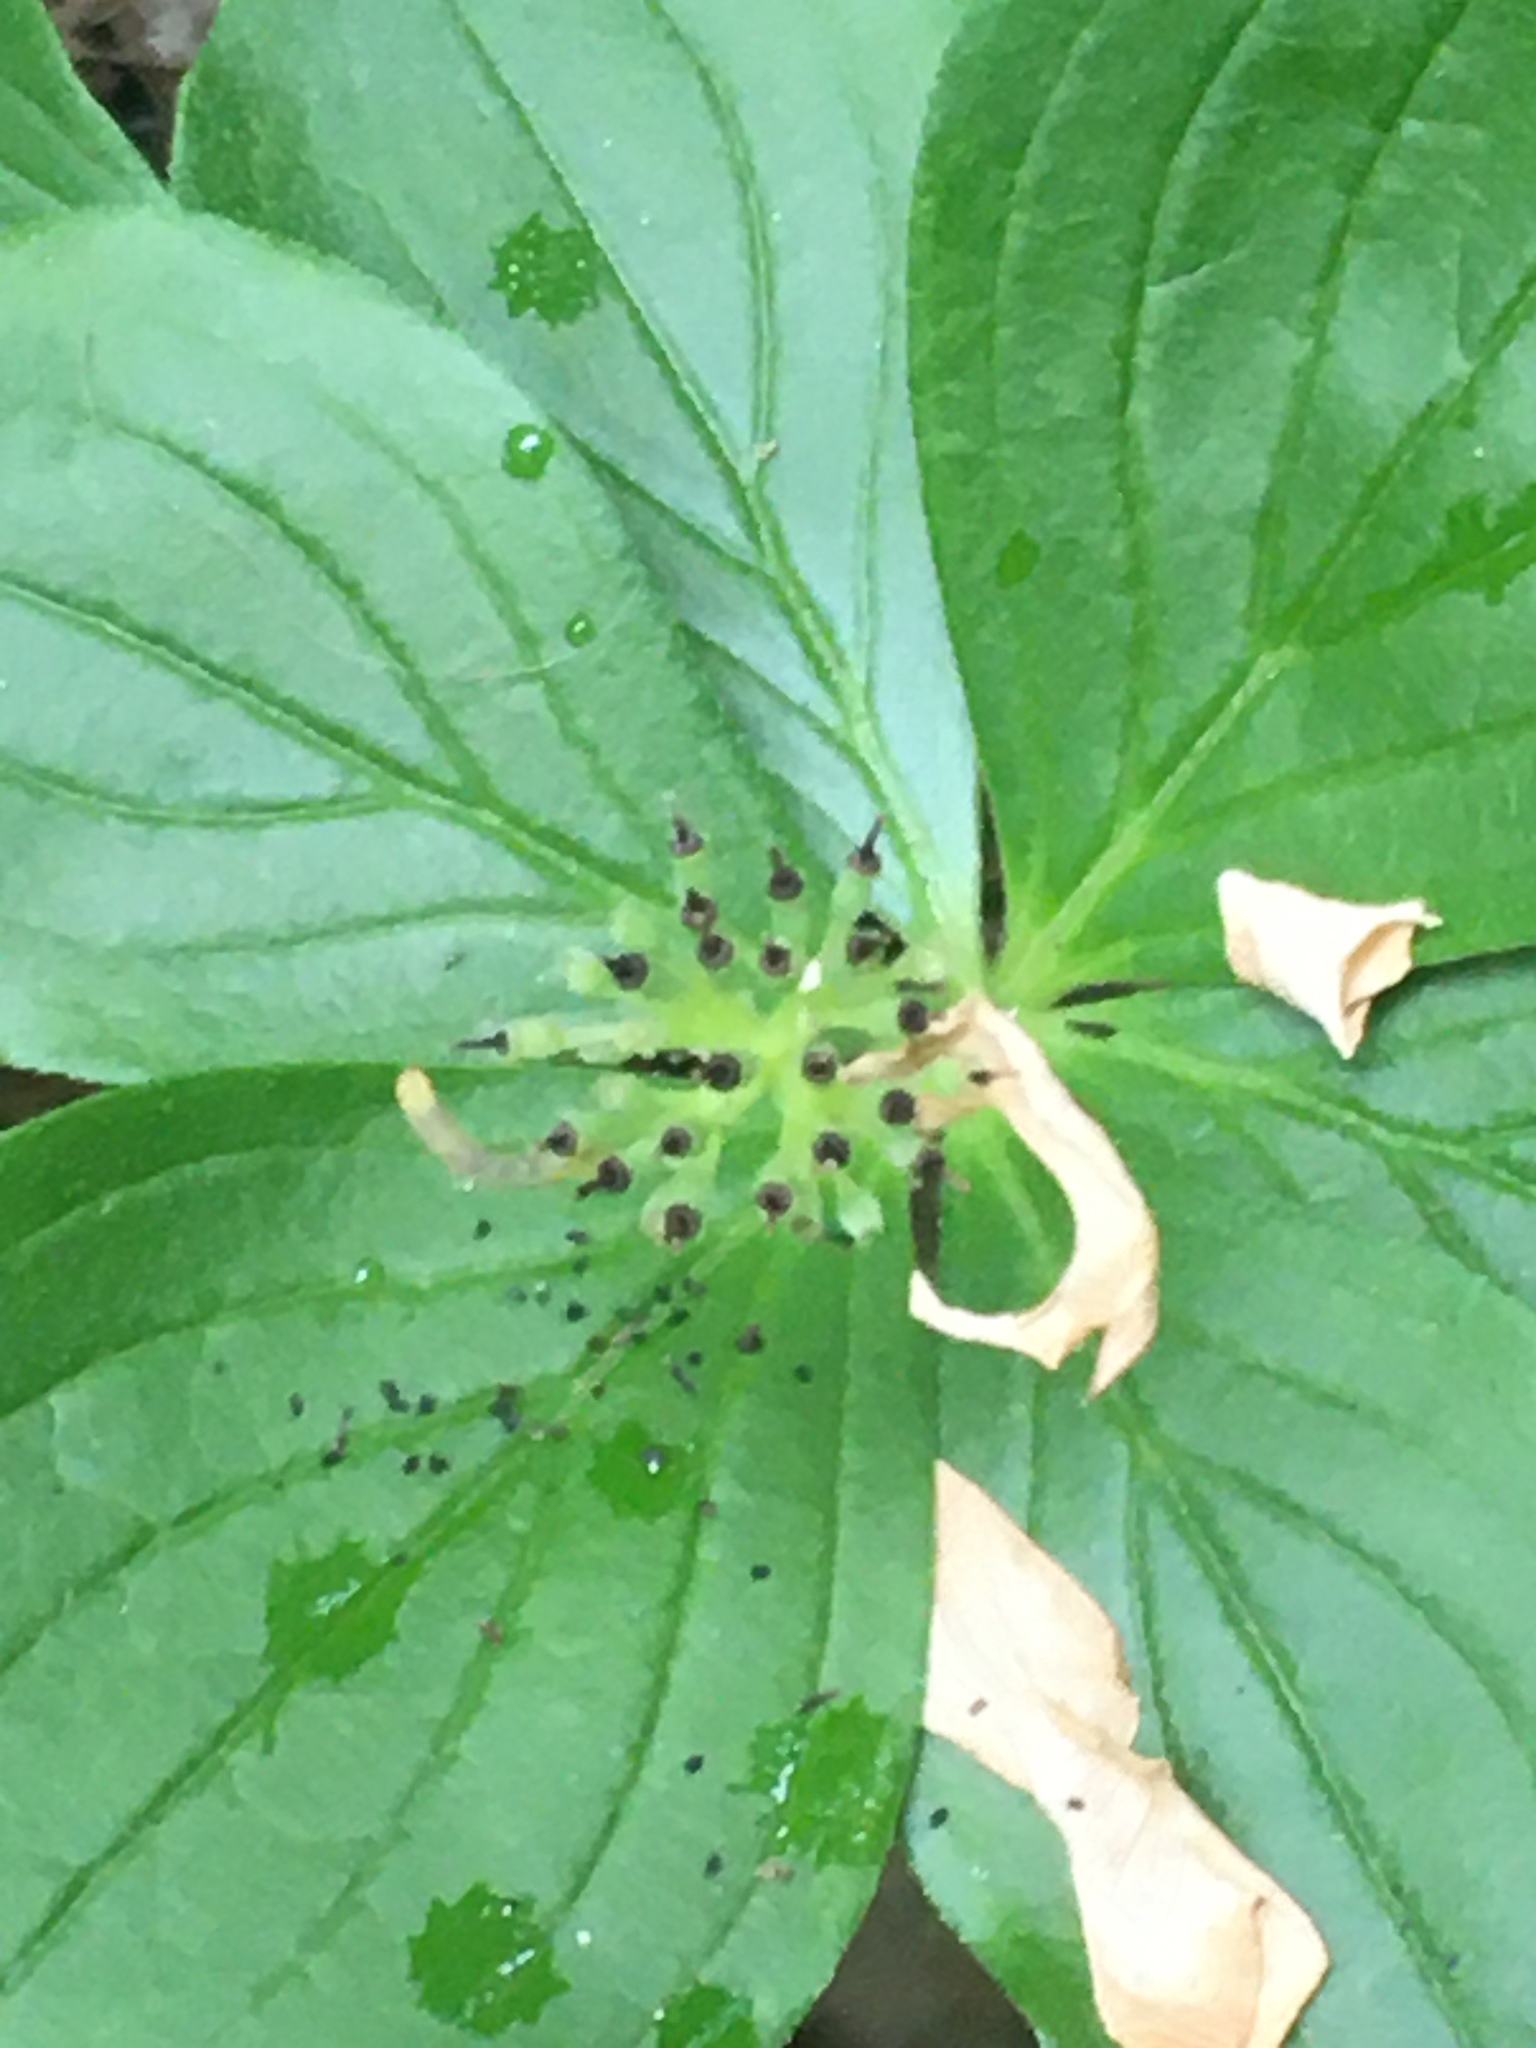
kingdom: Plantae
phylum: Tracheophyta
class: Magnoliopsida
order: Cornales
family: Cornaceae
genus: Cornus
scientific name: Cornus canadensis
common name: Creeping dogwood
